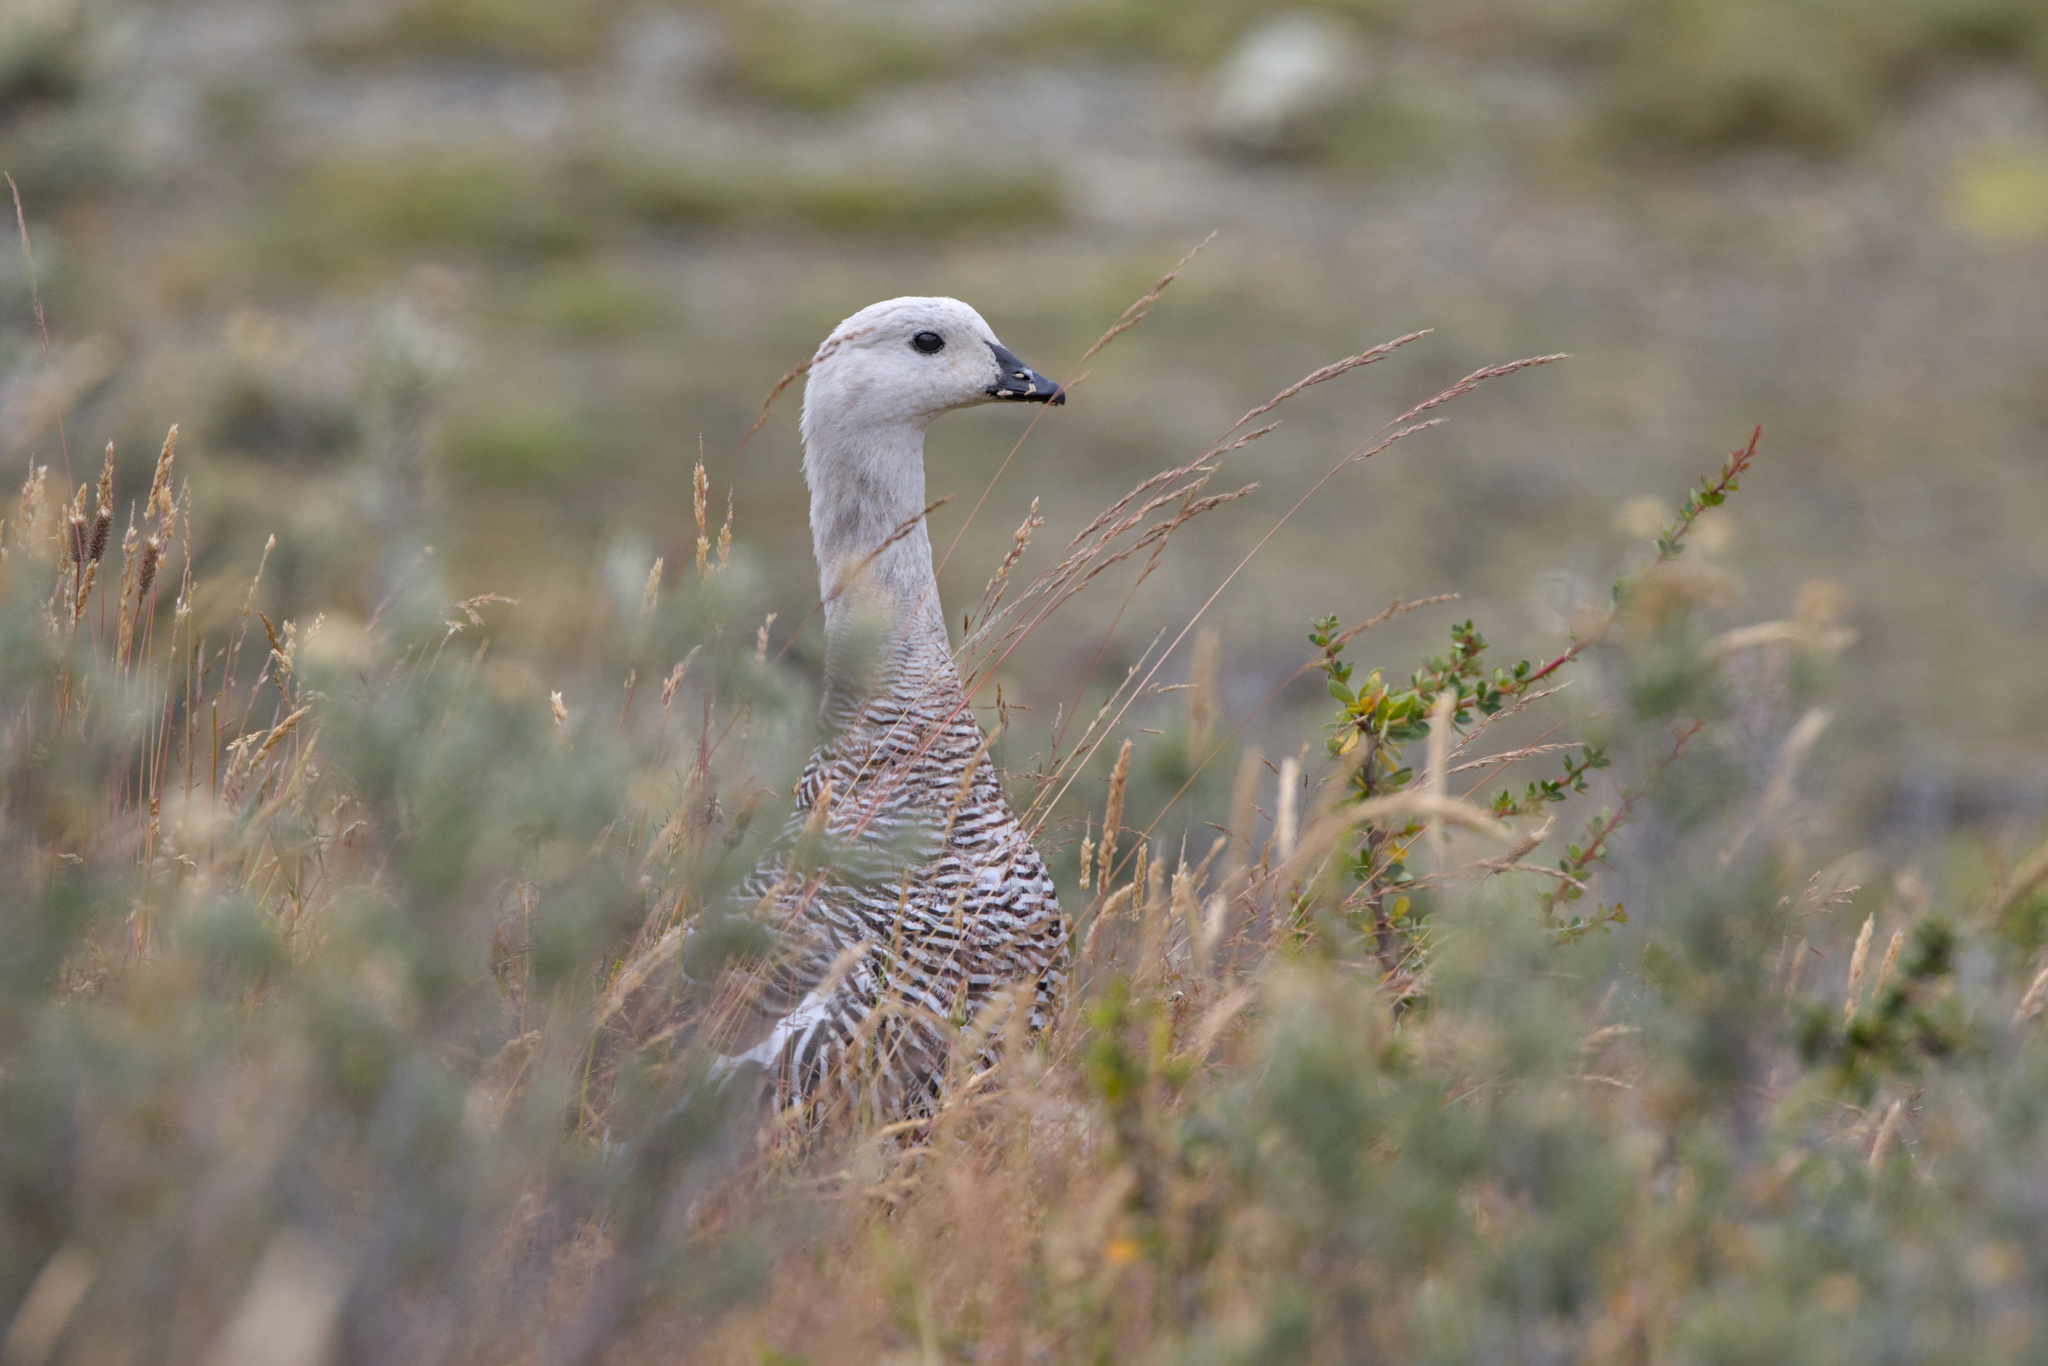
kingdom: Animalia
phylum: Chordata
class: Aves
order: Anseriformes
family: Anatidae
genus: Chloephaga
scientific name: Chloephaga picta
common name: Upland goose
